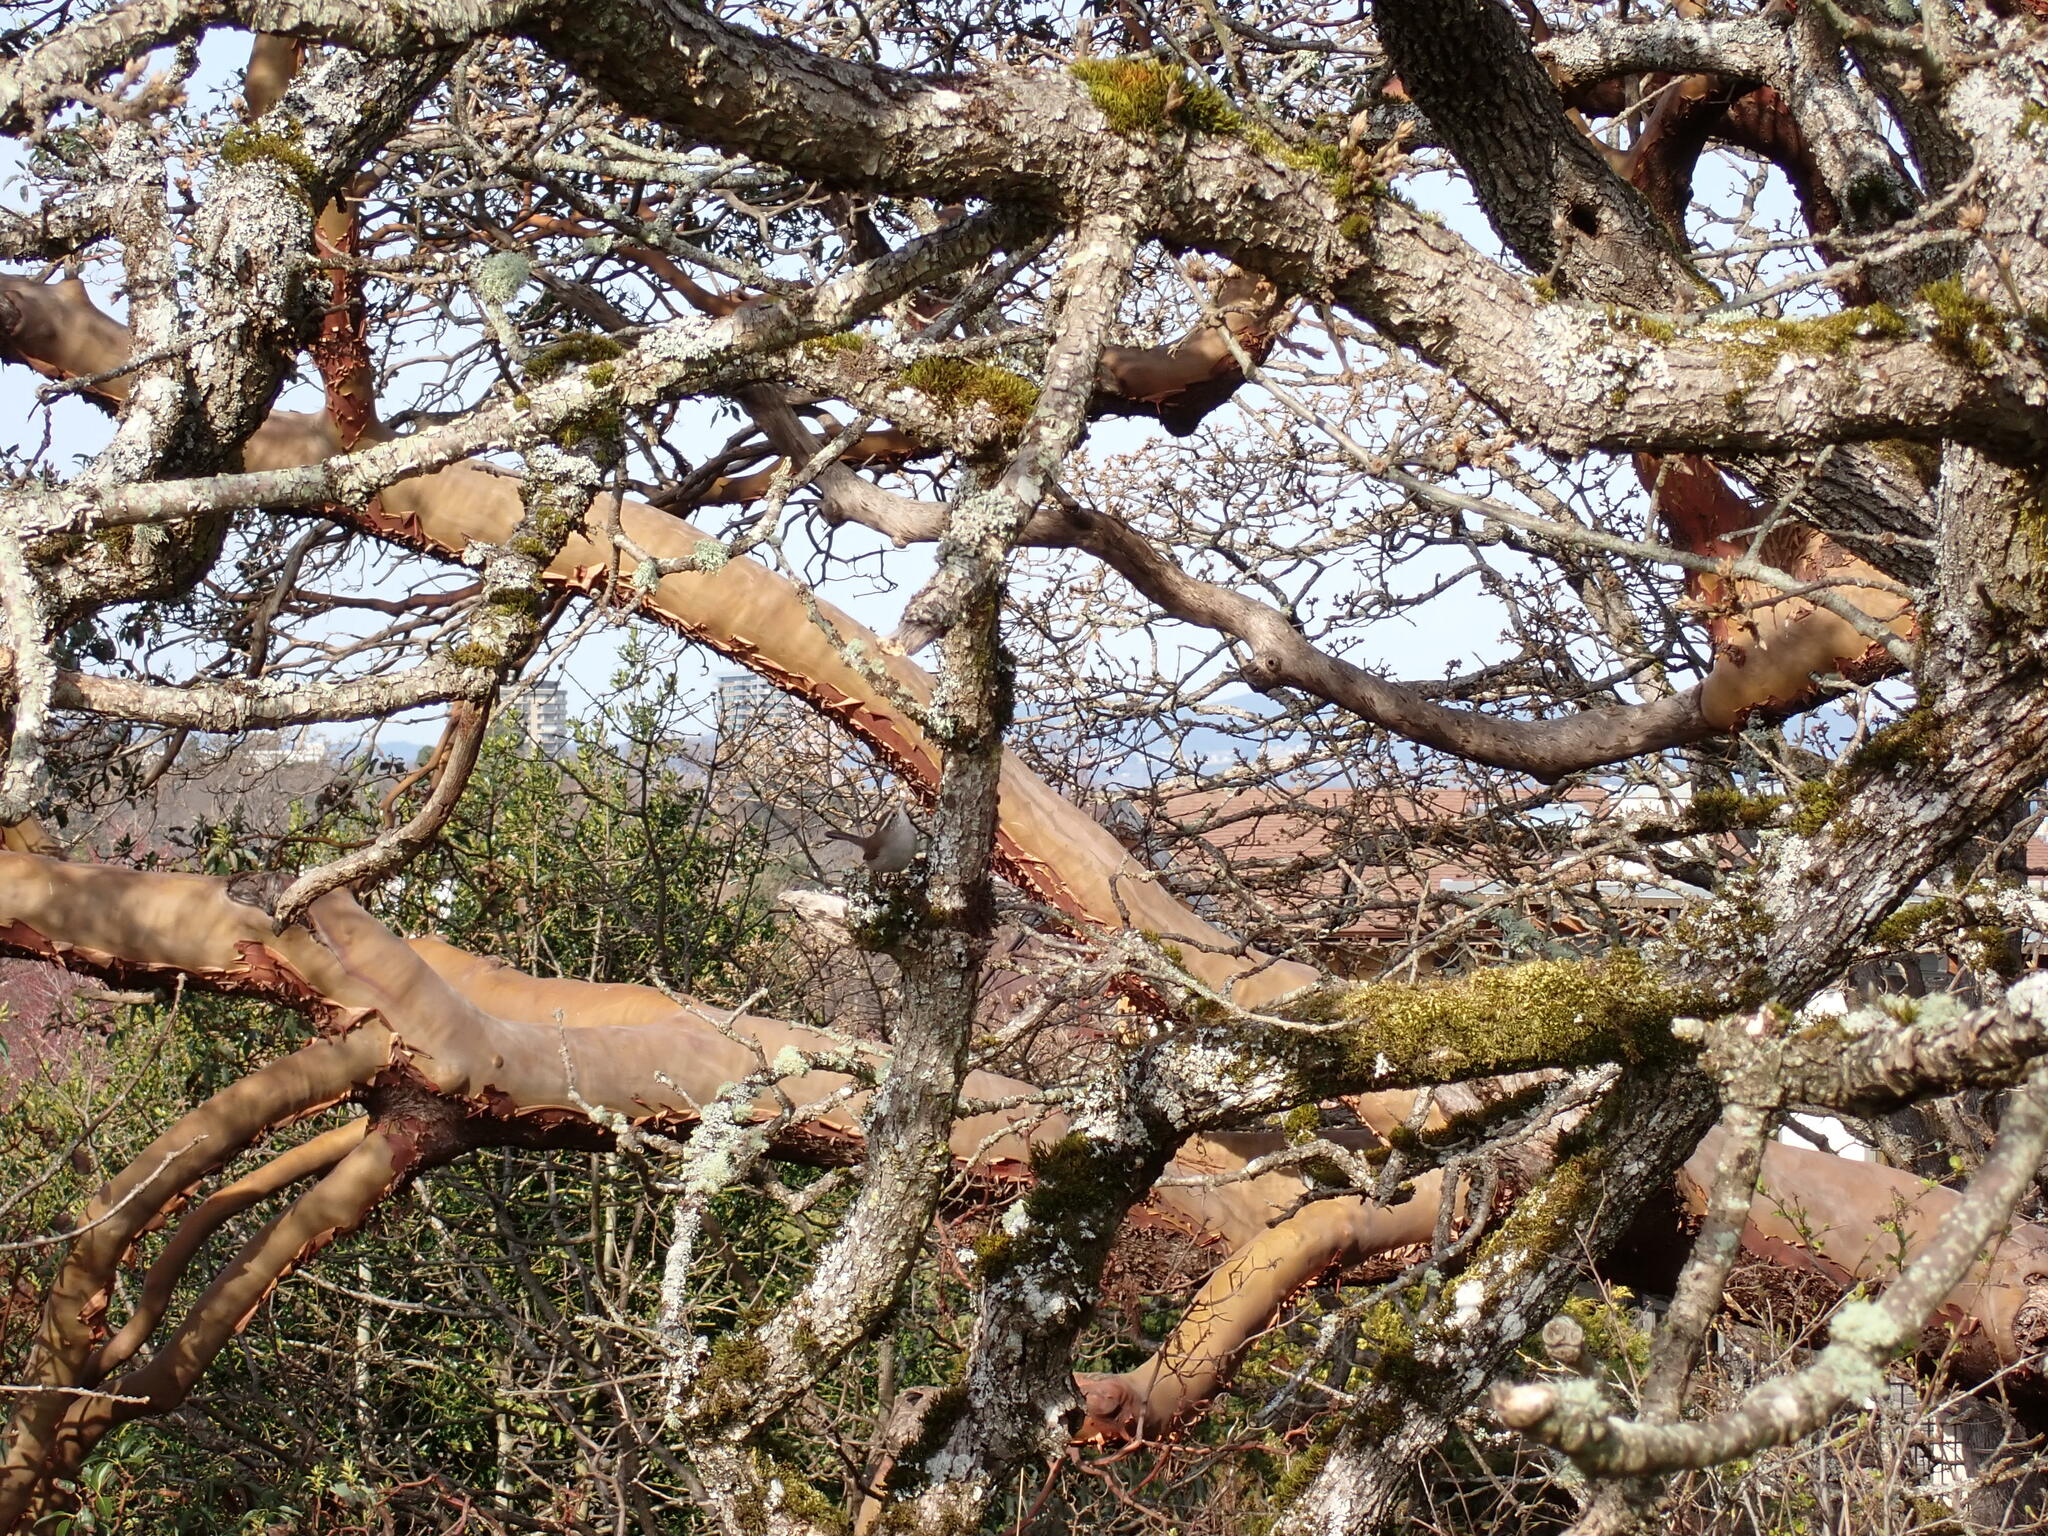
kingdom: Animalia
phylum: Chordata
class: Aves
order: Passeriformes
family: Troglodytidae
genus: Thryomanes
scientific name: Thryomanes bewickii
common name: Bewick's wren
